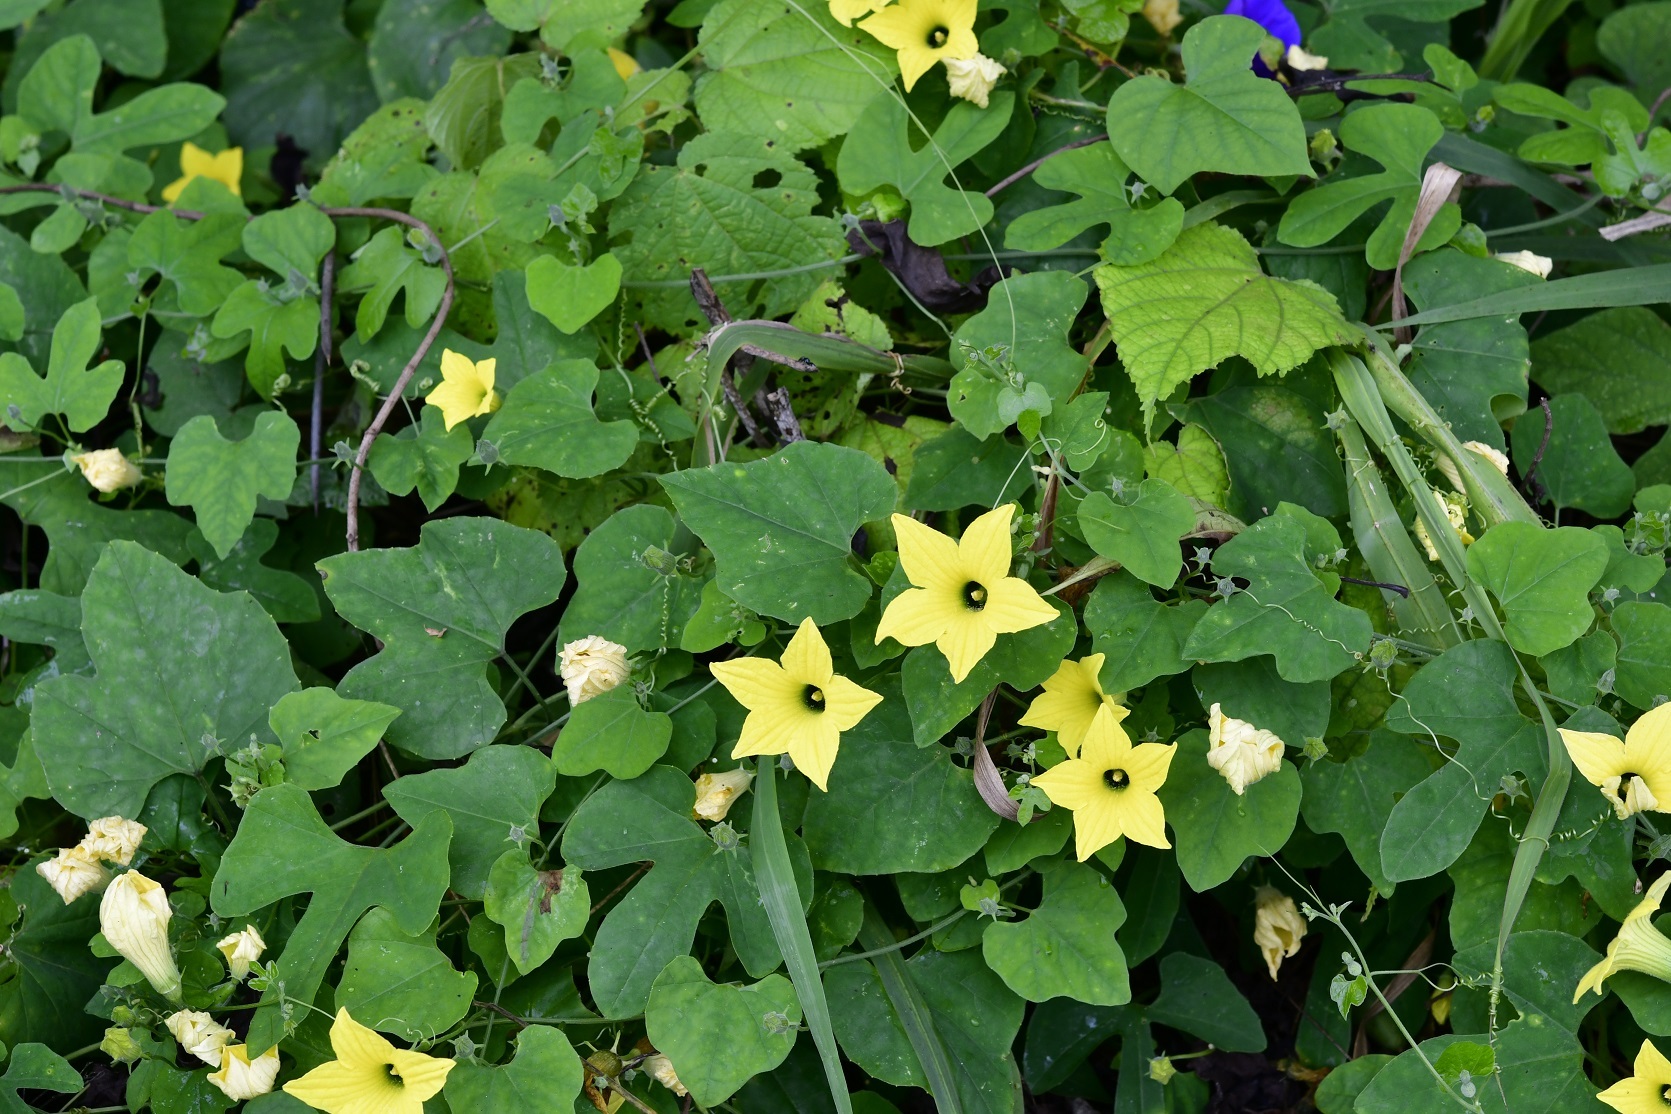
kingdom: Plantae
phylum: Tracheophyta
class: Magnoliopsida
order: Cucurbitales
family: Cucurbitaceae
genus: Schizocarpum
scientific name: Schizocarpum longisepalum
